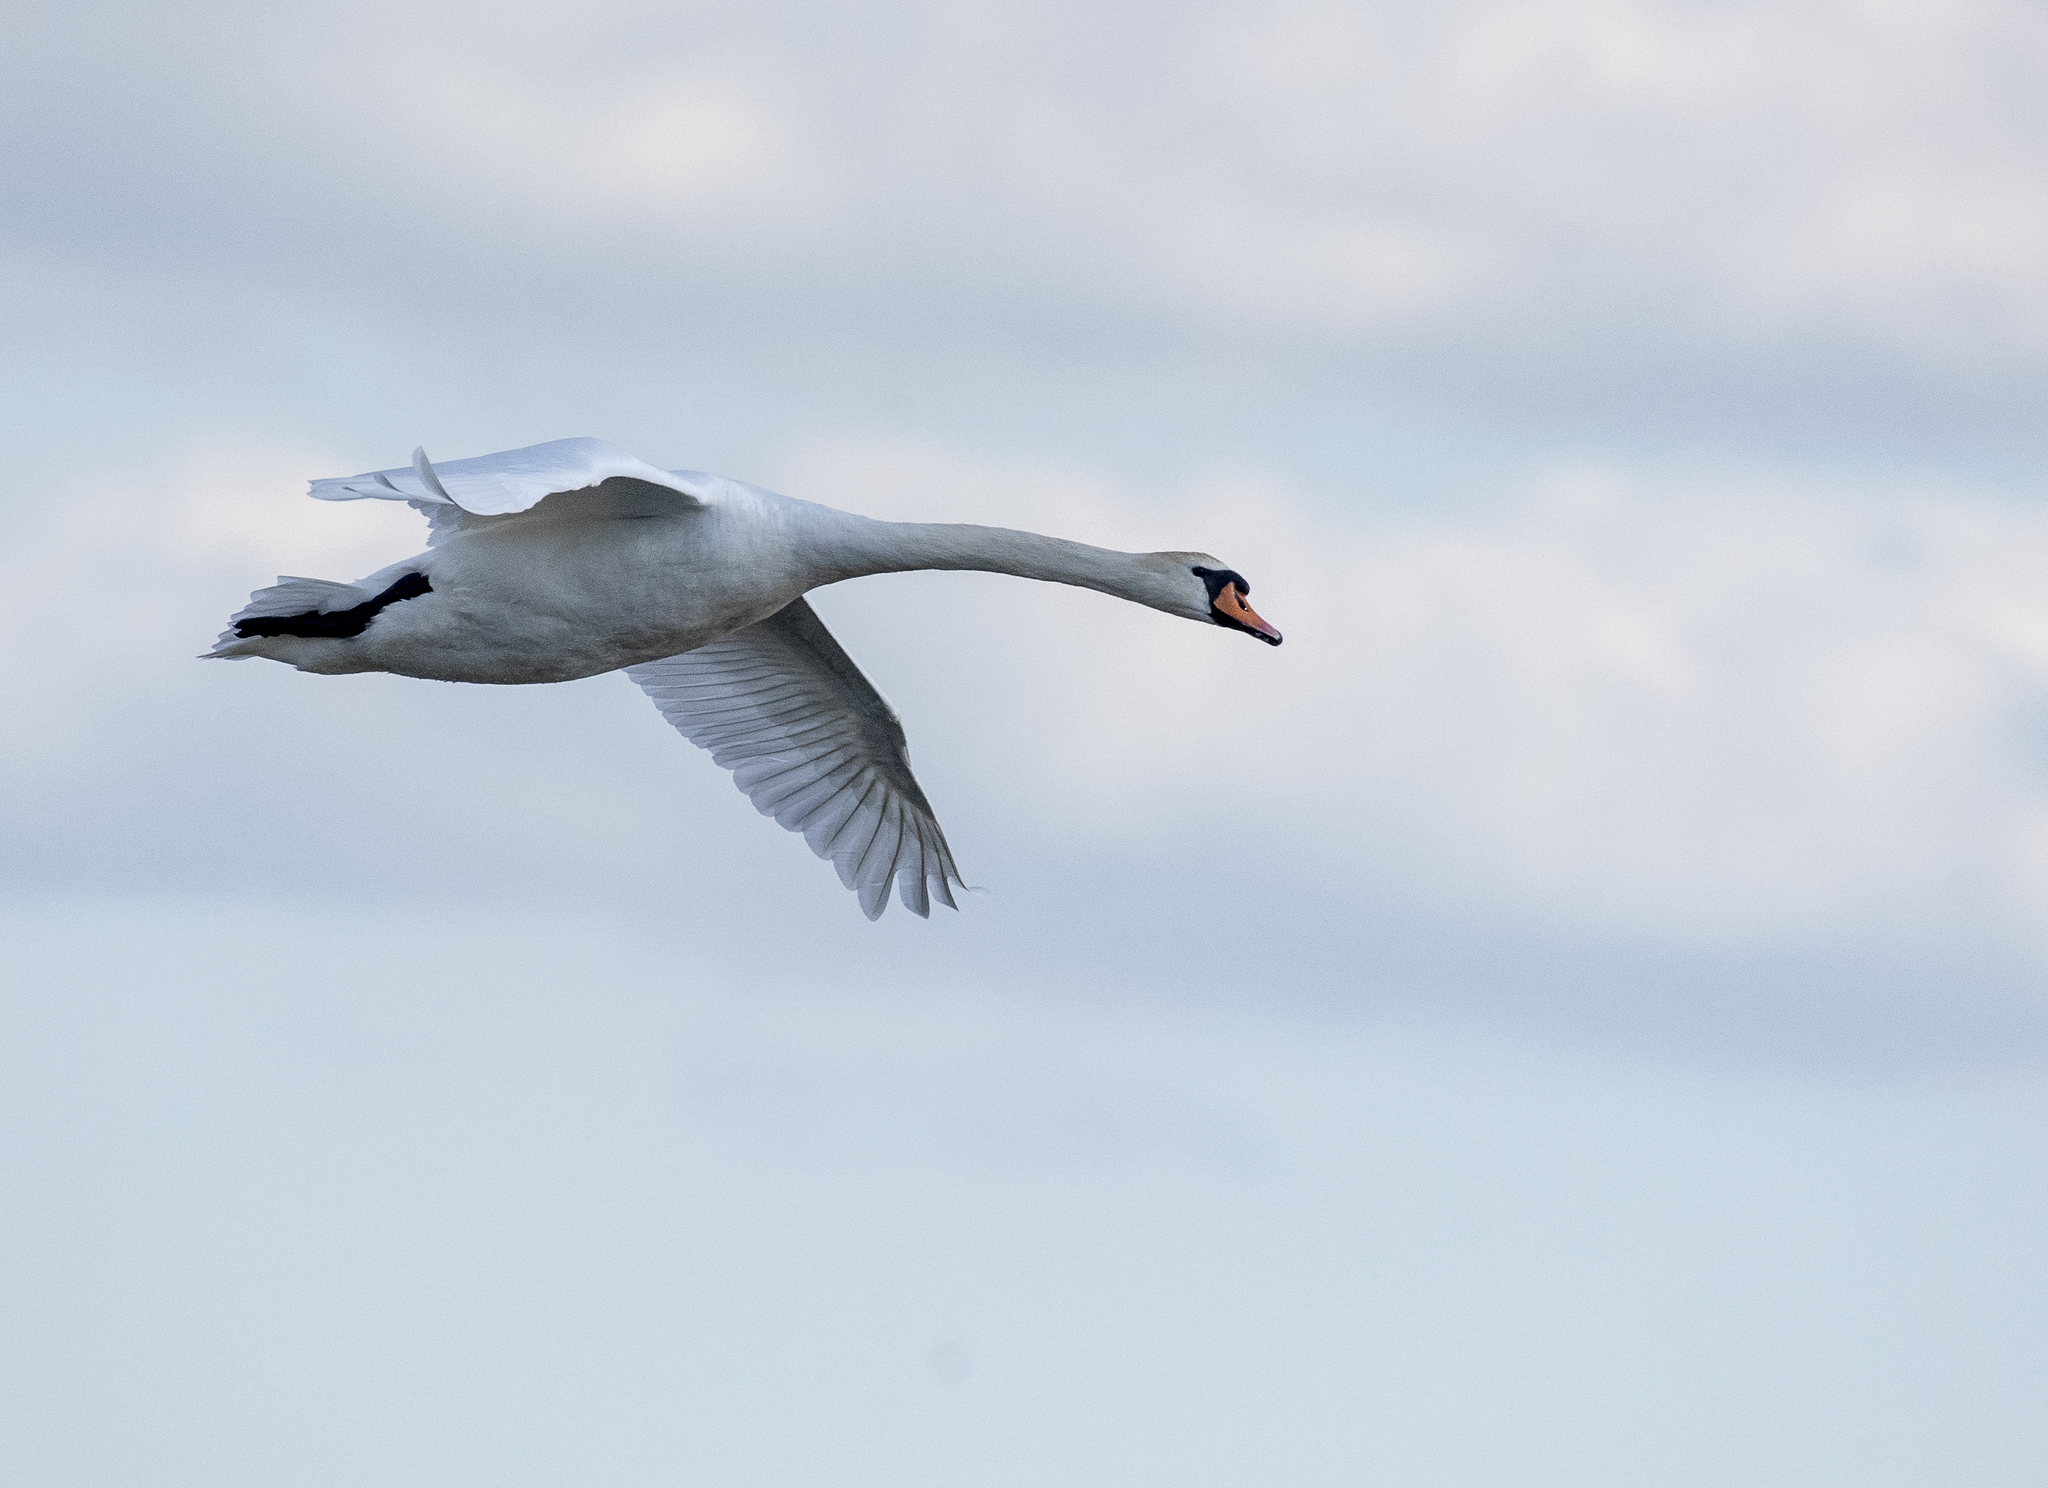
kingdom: Animalia
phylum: Chordata
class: Aves
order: Anseriformes
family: Anatidae
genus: Cygnus
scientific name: Cygnus olor
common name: Mute swan
